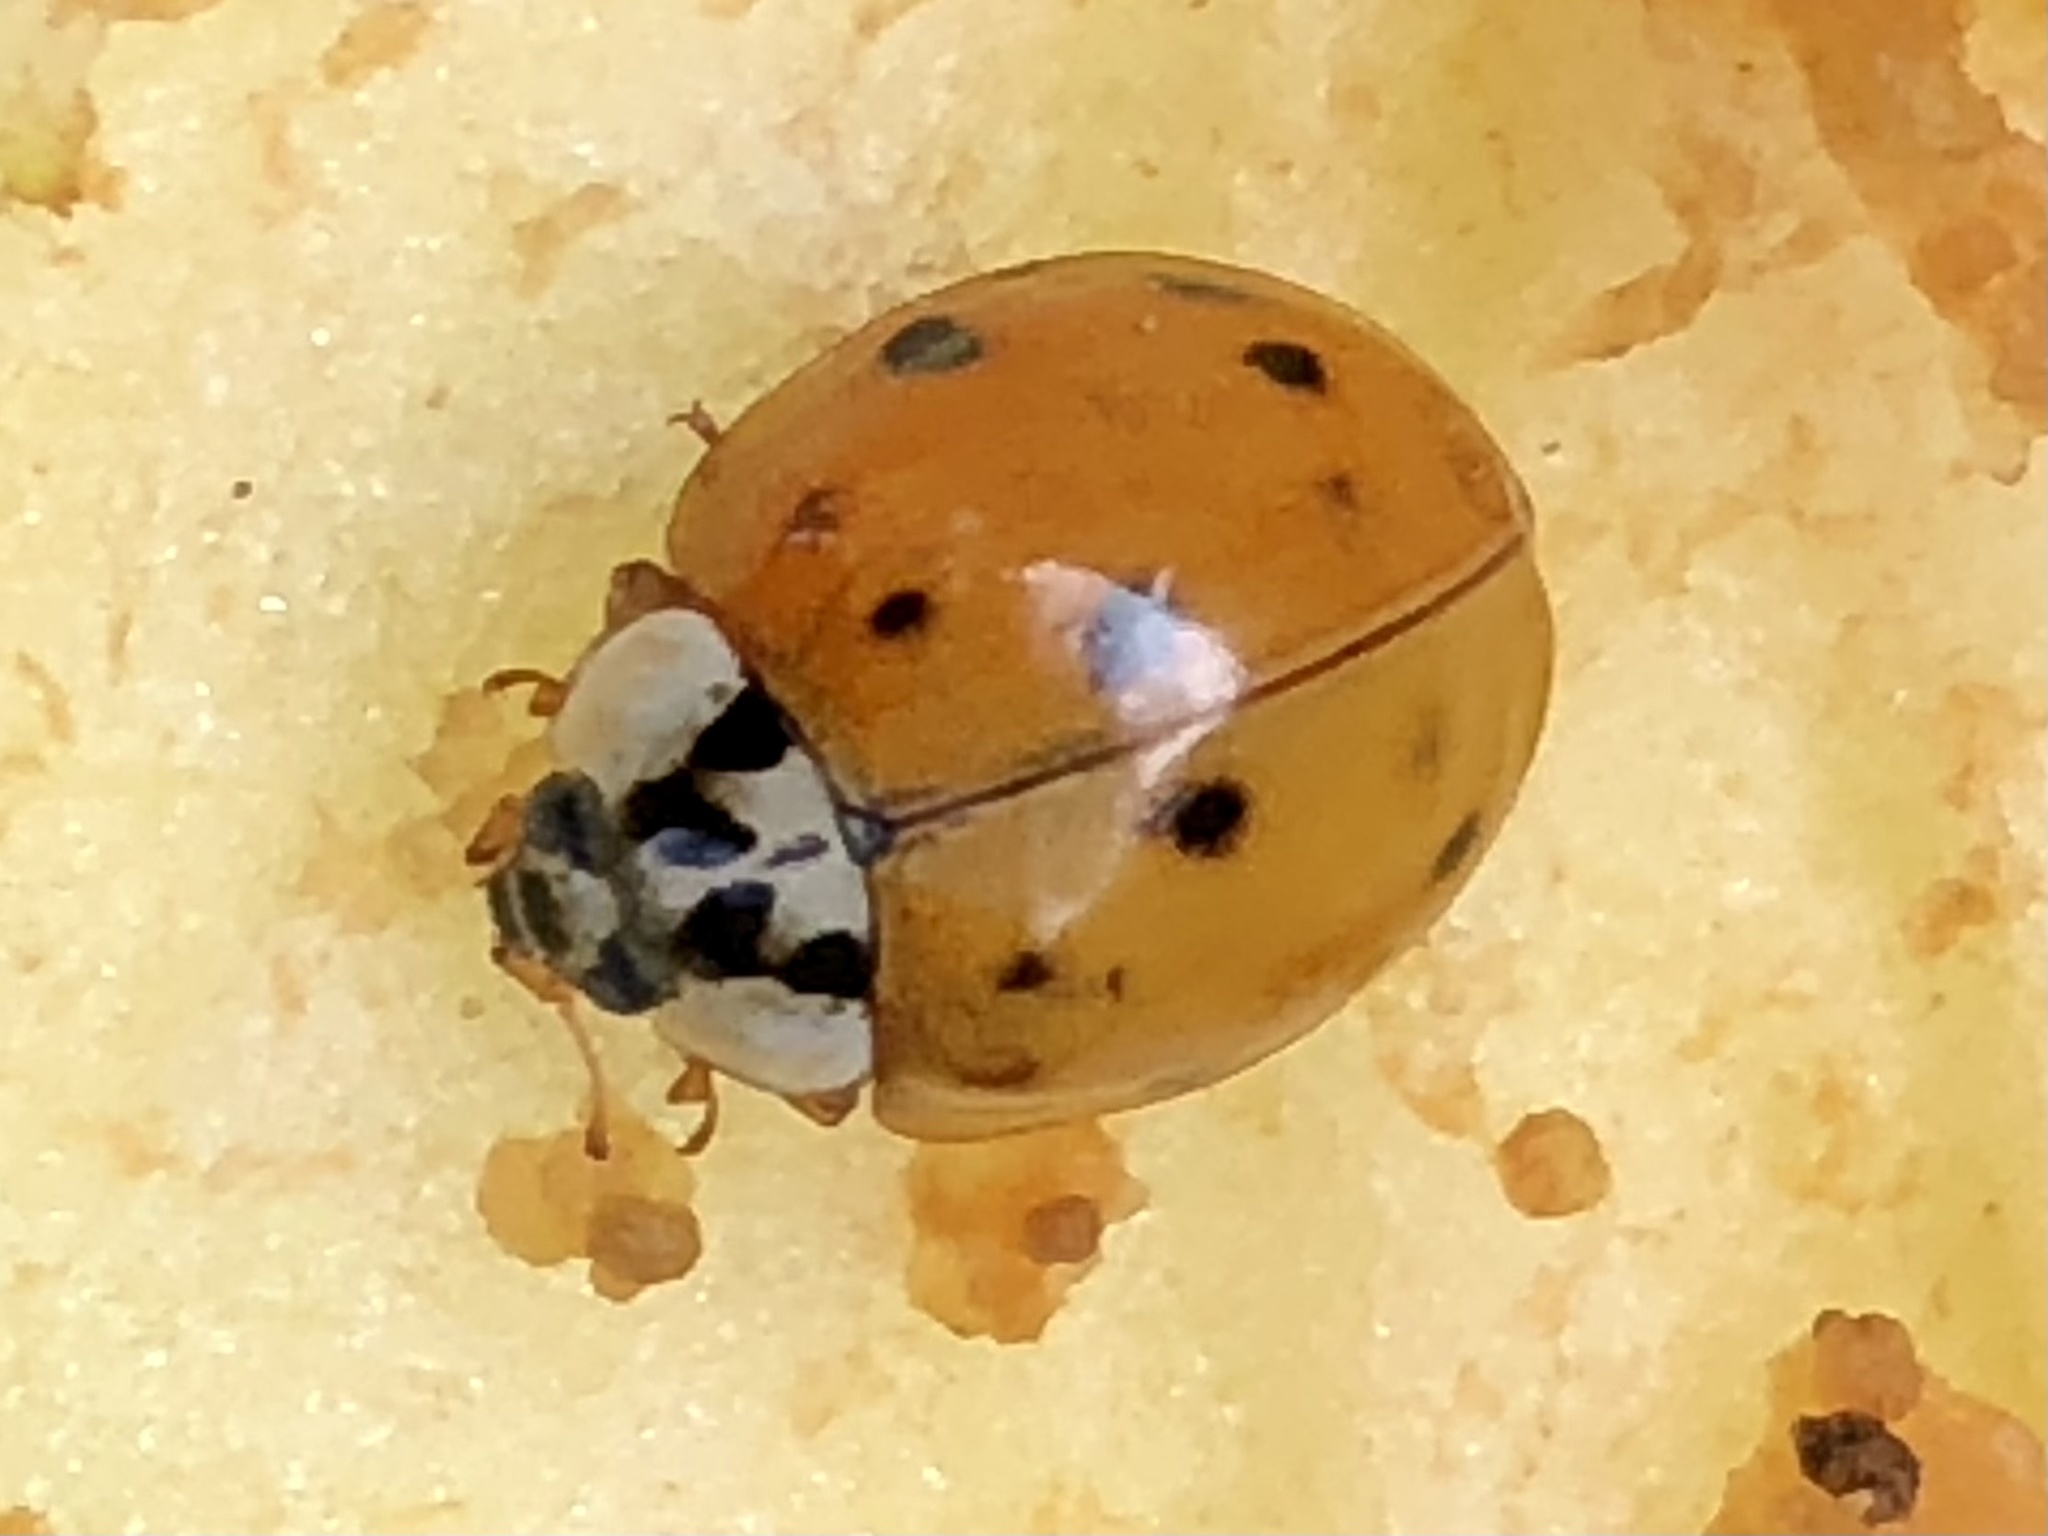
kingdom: Animalia
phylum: Arthropoda
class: Insecta
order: Coleoptera
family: Coccinellidae
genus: Harmonia
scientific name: Harmonia axyridis
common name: Harlequin ladybird
